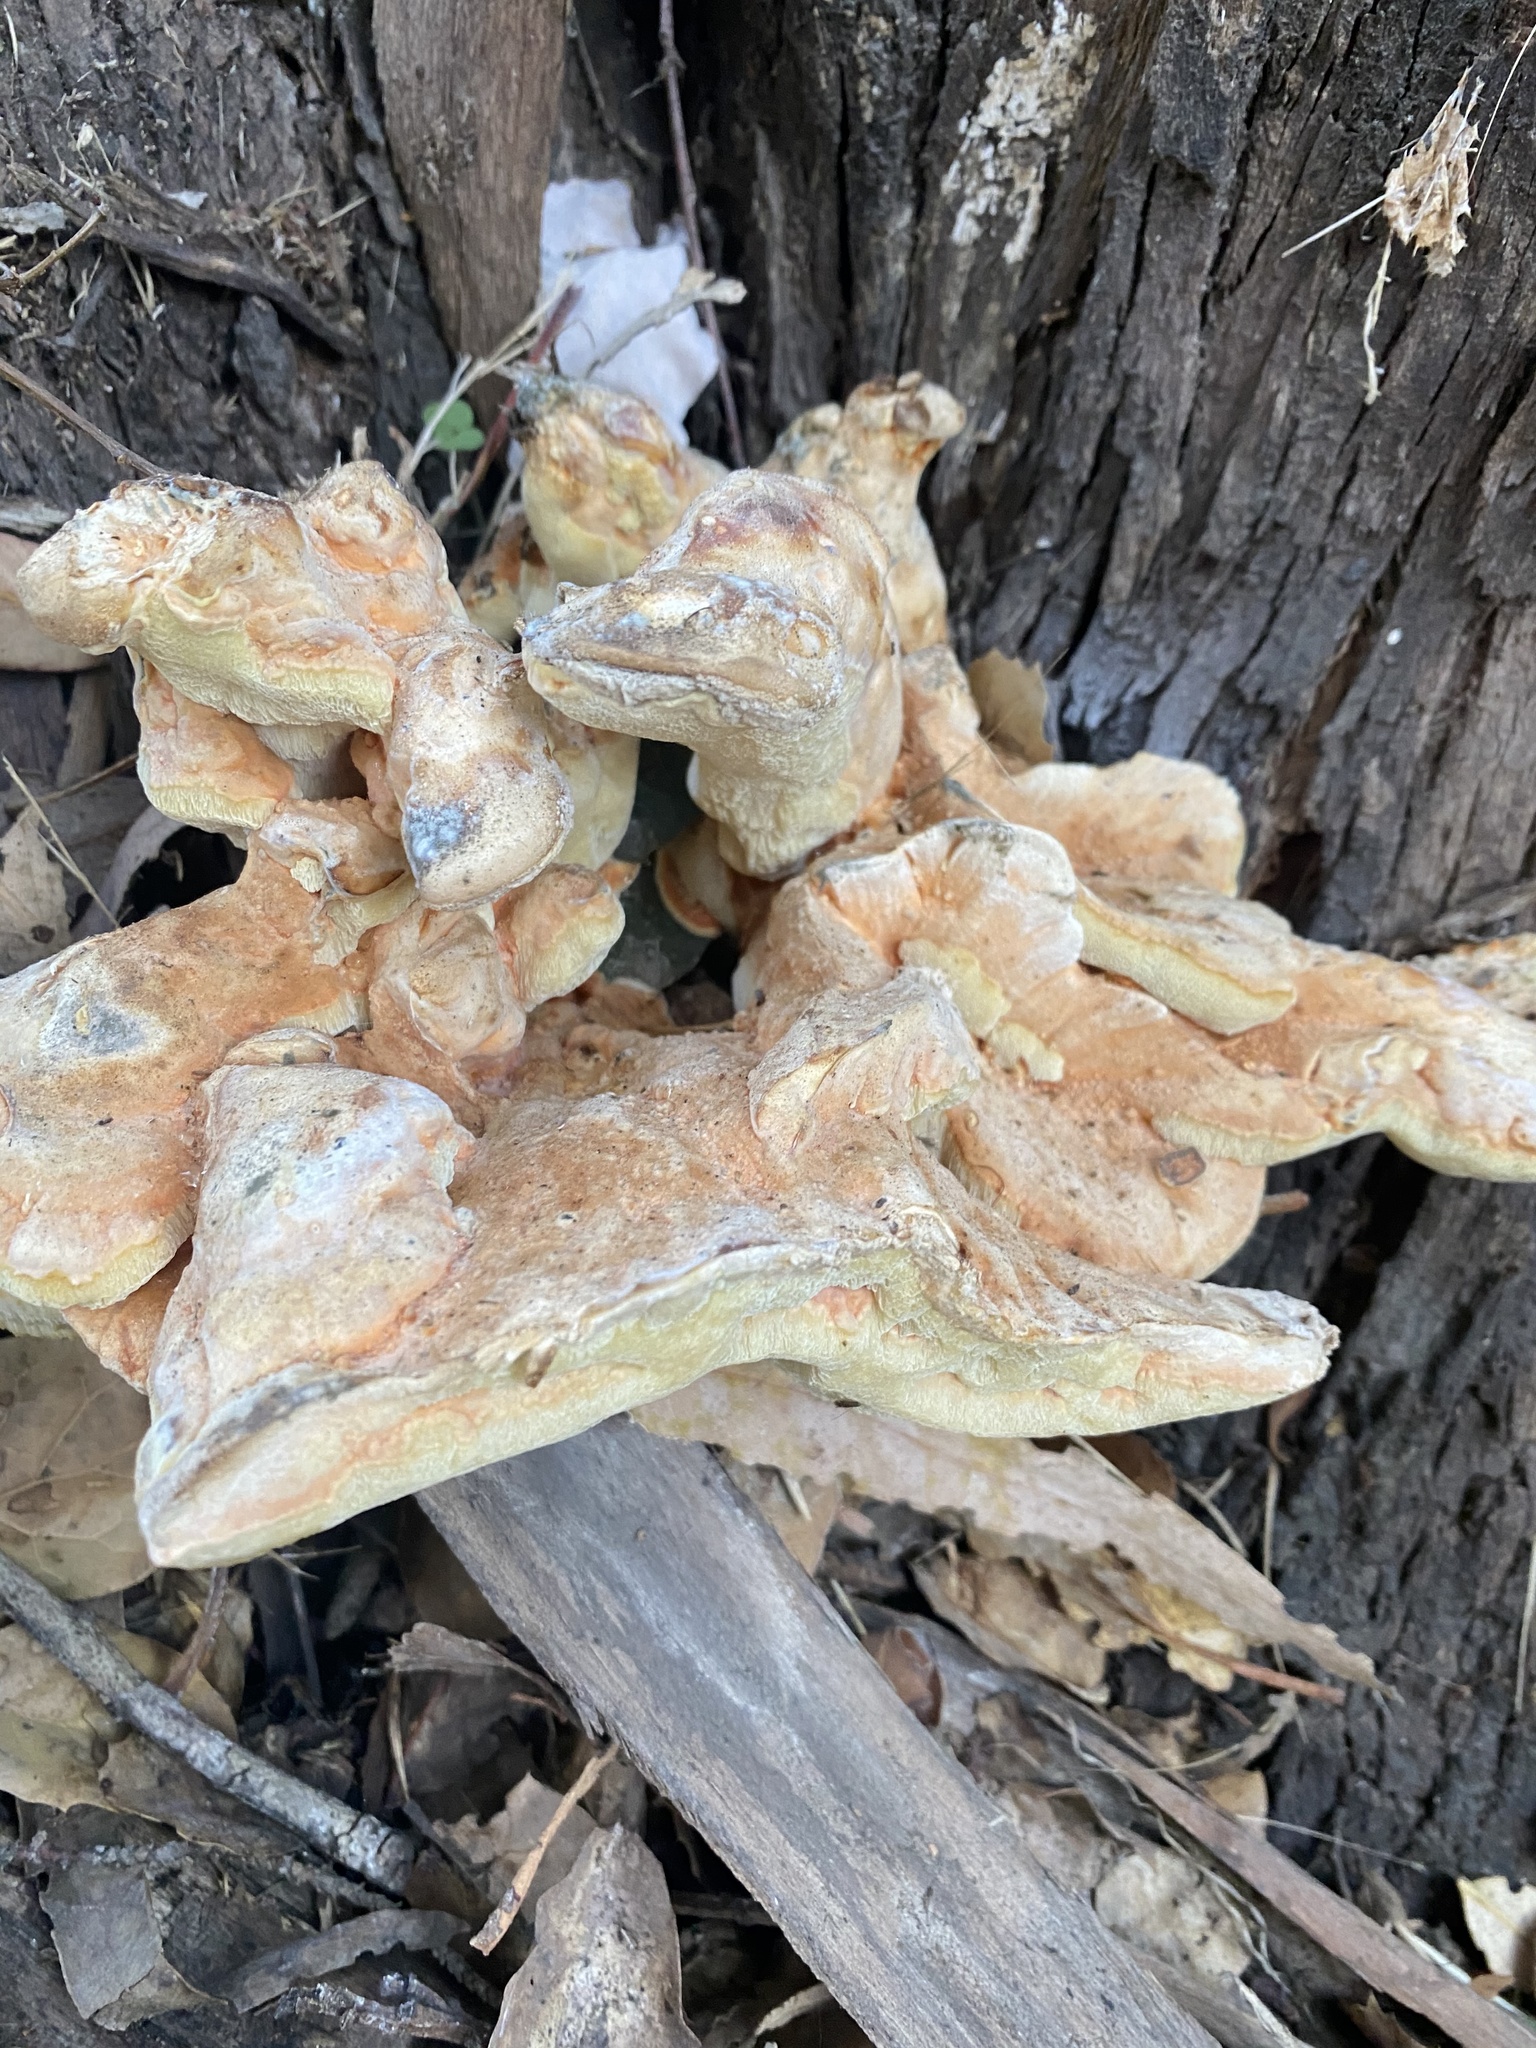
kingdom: Fungi
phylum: Basidiomycota
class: Agaricomycetes
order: Polyporales
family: Laetiporaceae
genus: Laetiporus
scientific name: Laetiporus gilbertsonii
